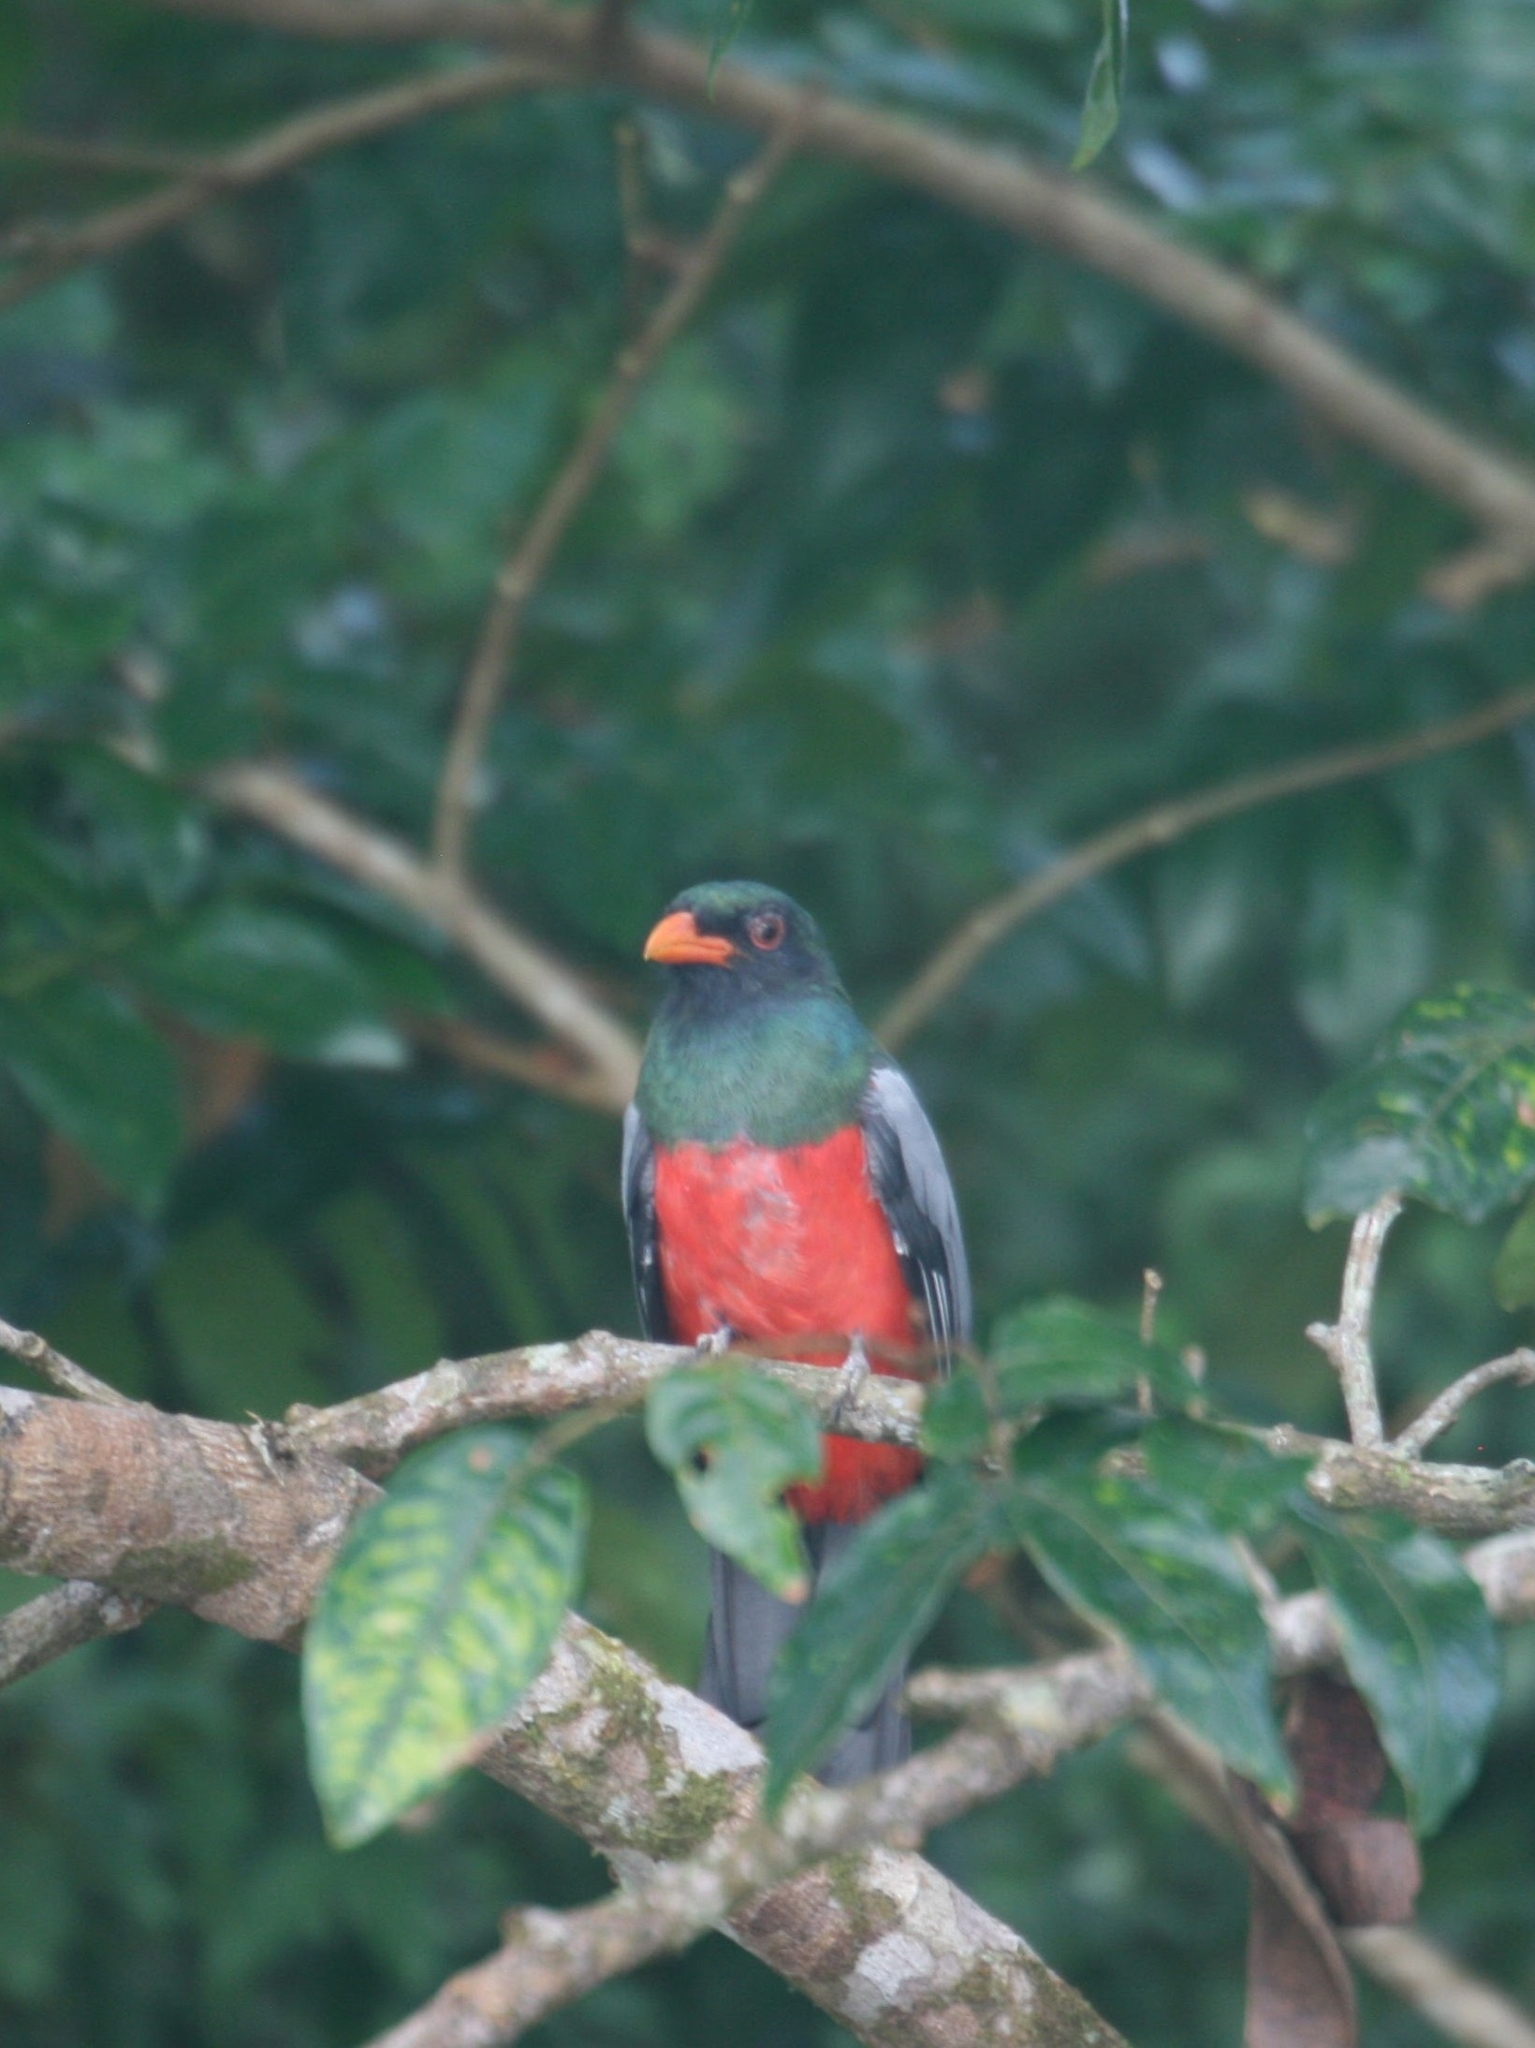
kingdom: Animalia
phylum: Chordata
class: Aves
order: Trogoniformes
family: Trogonidae
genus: Trogon
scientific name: Trogon massena
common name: Slaty-tailed trogon
